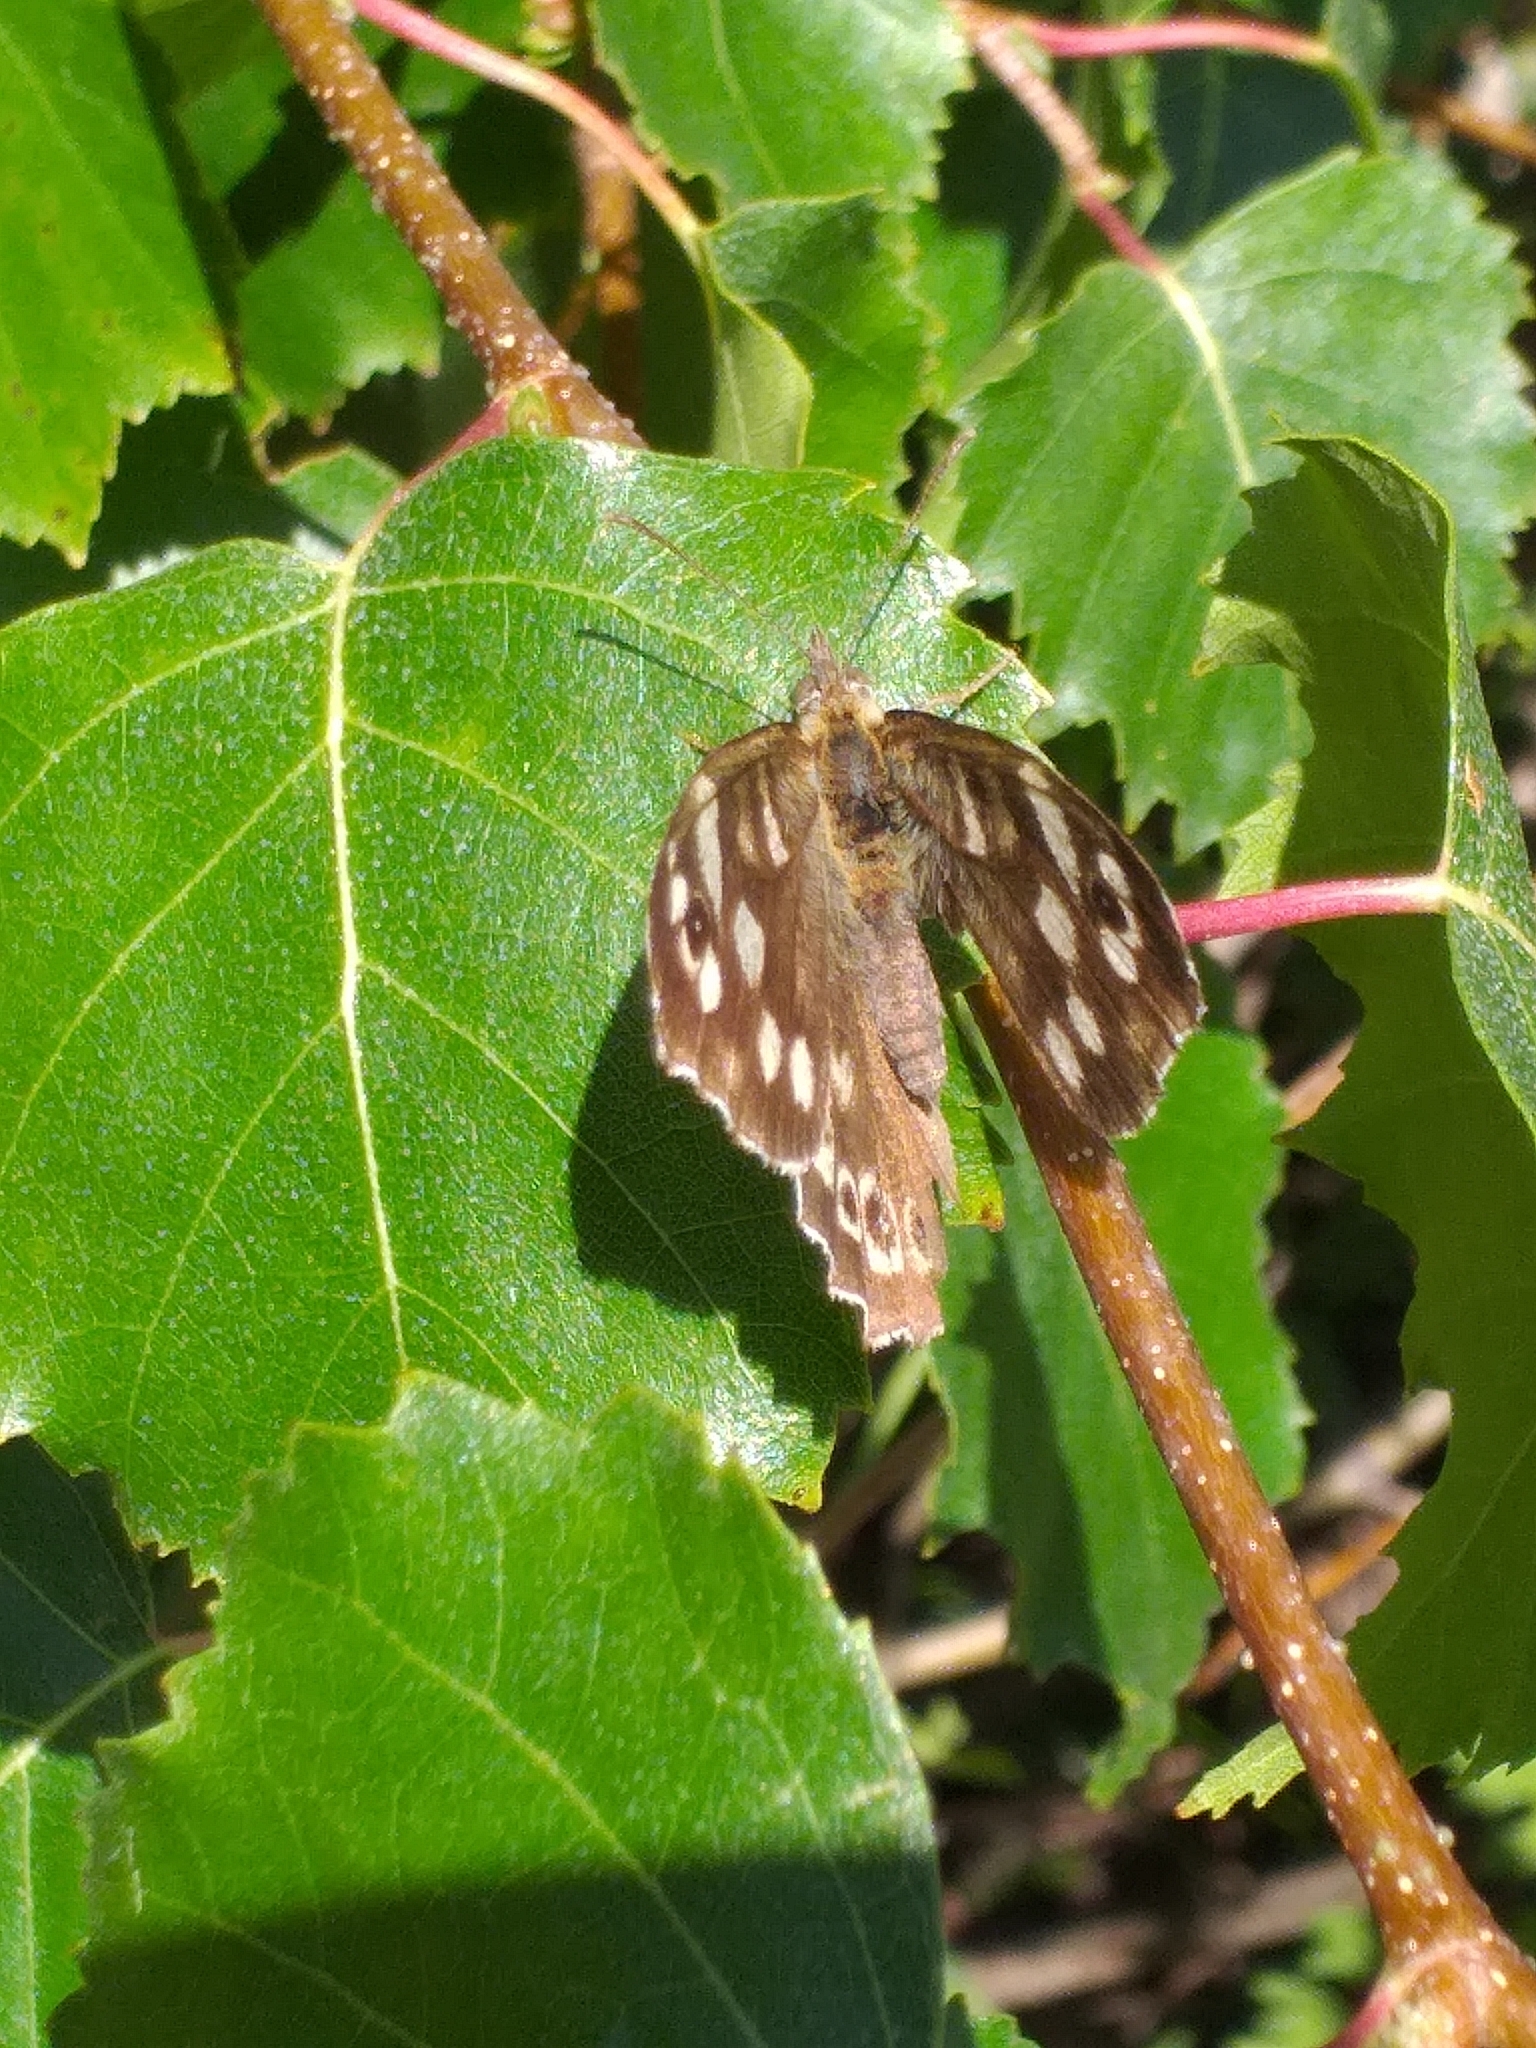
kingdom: Animalia
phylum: Arthropoda
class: Insecta
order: Lepidoptera
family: Nymphalidae
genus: Pararge
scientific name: Pararge aegeria
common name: Speckled wood
